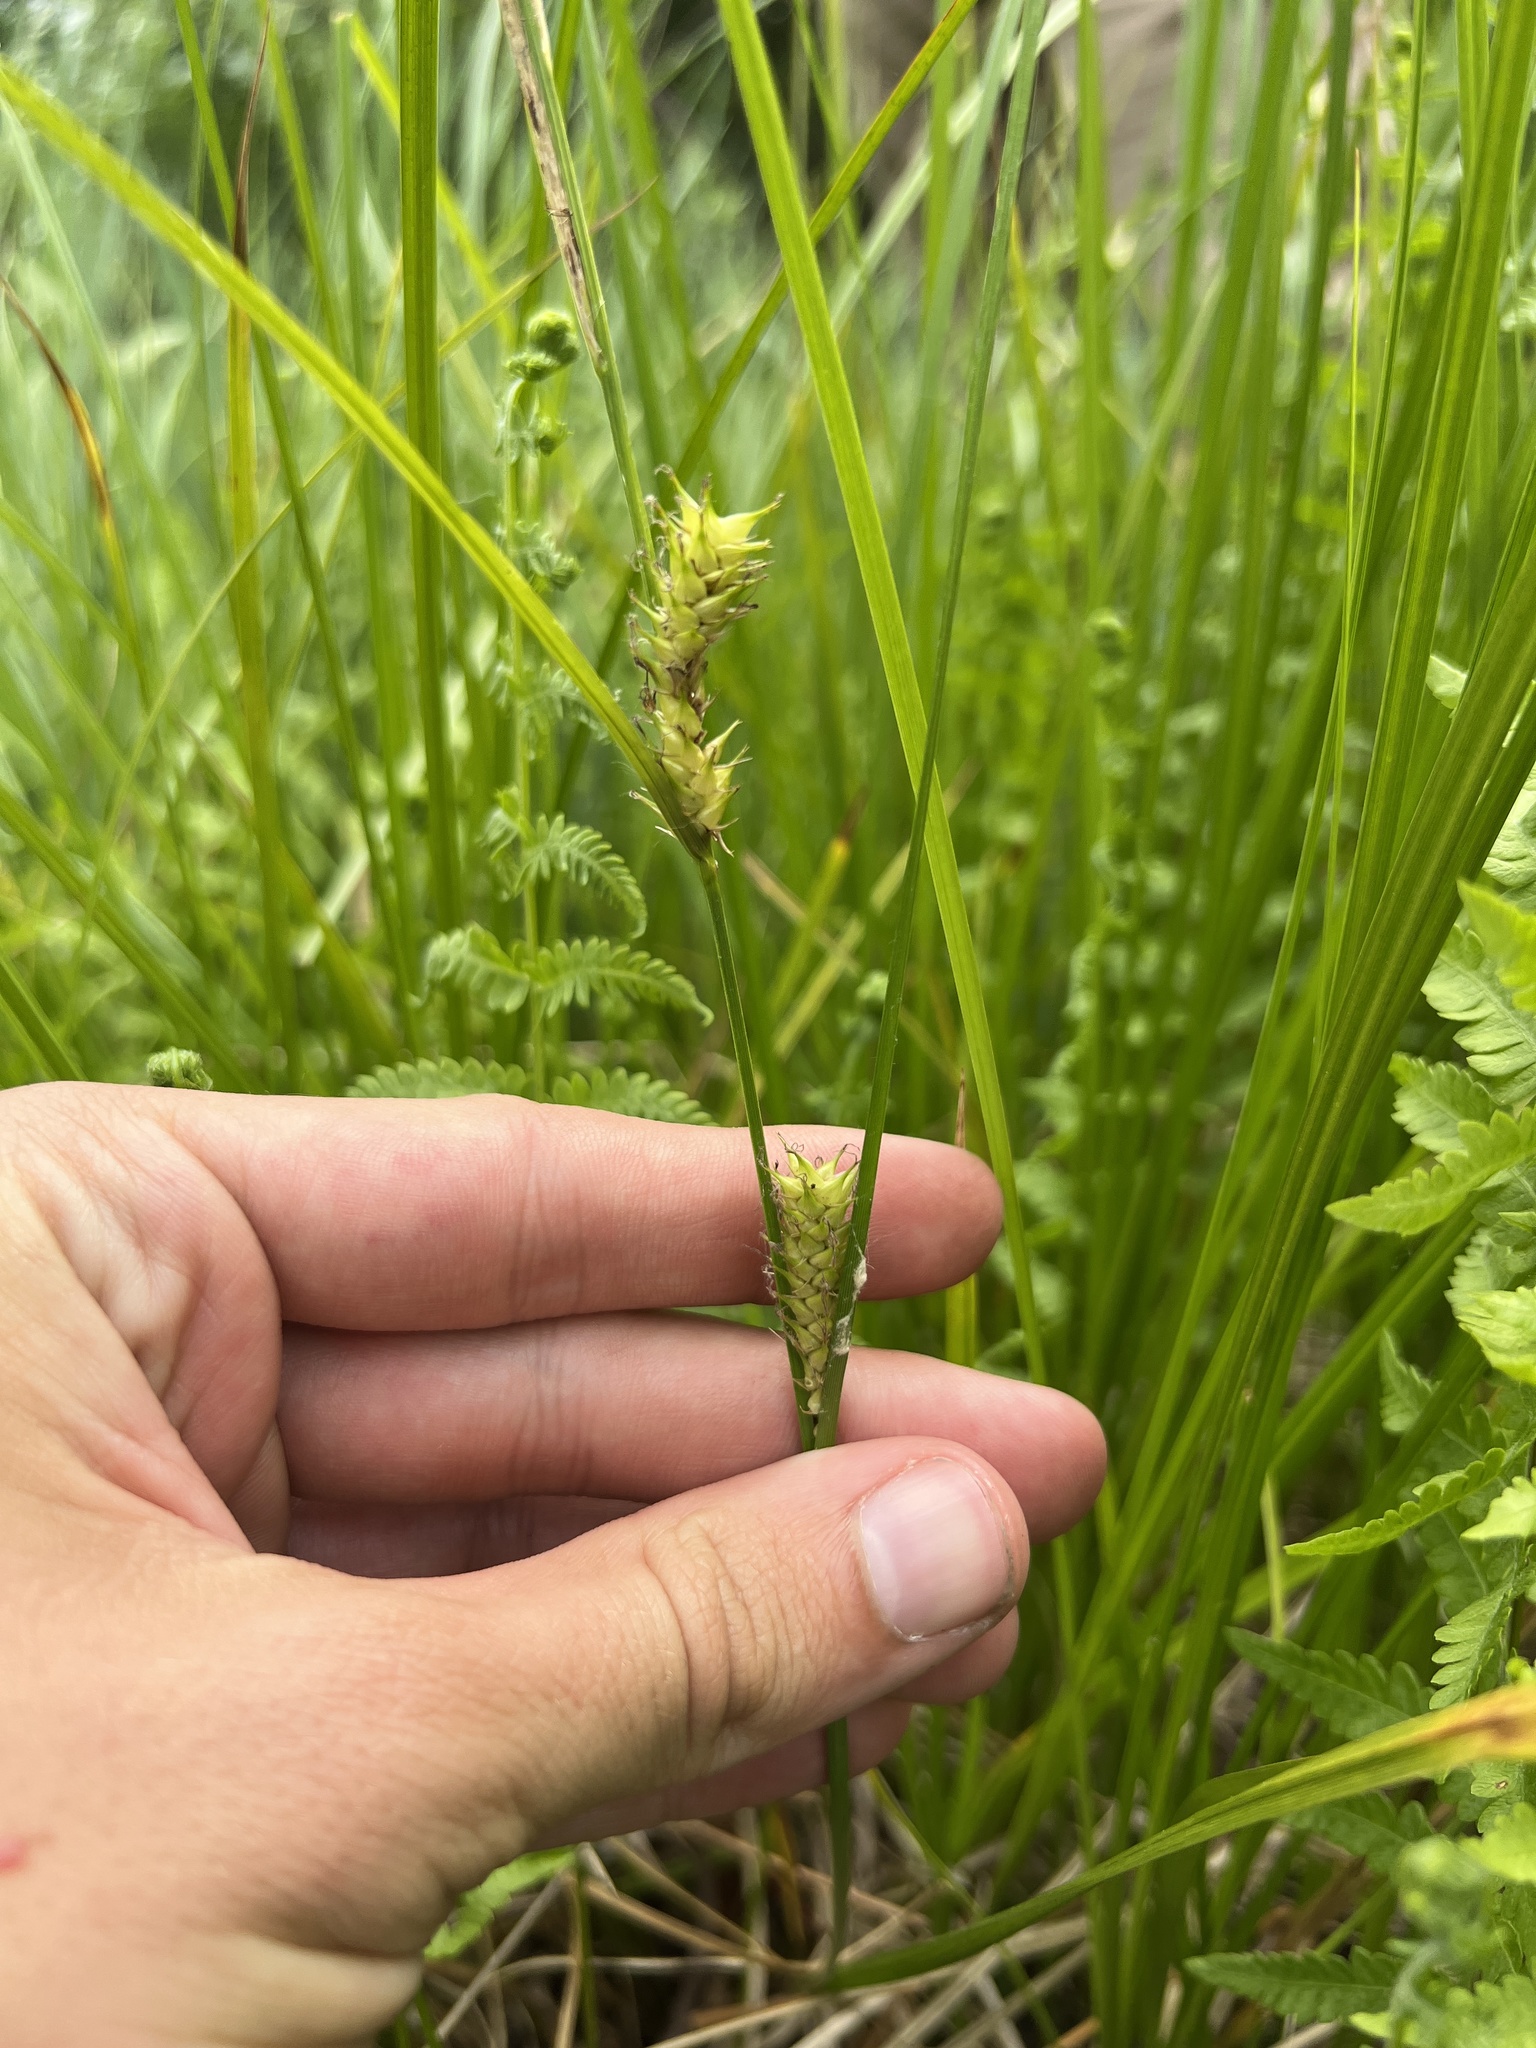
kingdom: Plantae
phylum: Tracheophyta
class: Liliopsida
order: Poales
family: Cyperaceae
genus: Carex
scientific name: Carex vesicaria
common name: Bladder-sedge
